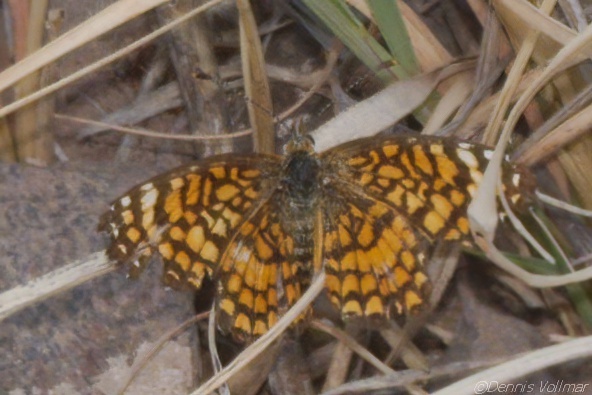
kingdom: Animalia
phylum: Arthropoda
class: Insecta
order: Lepidoptera
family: Nymphalidae
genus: Texola
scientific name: Texola elada
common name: Elada checkerspot
